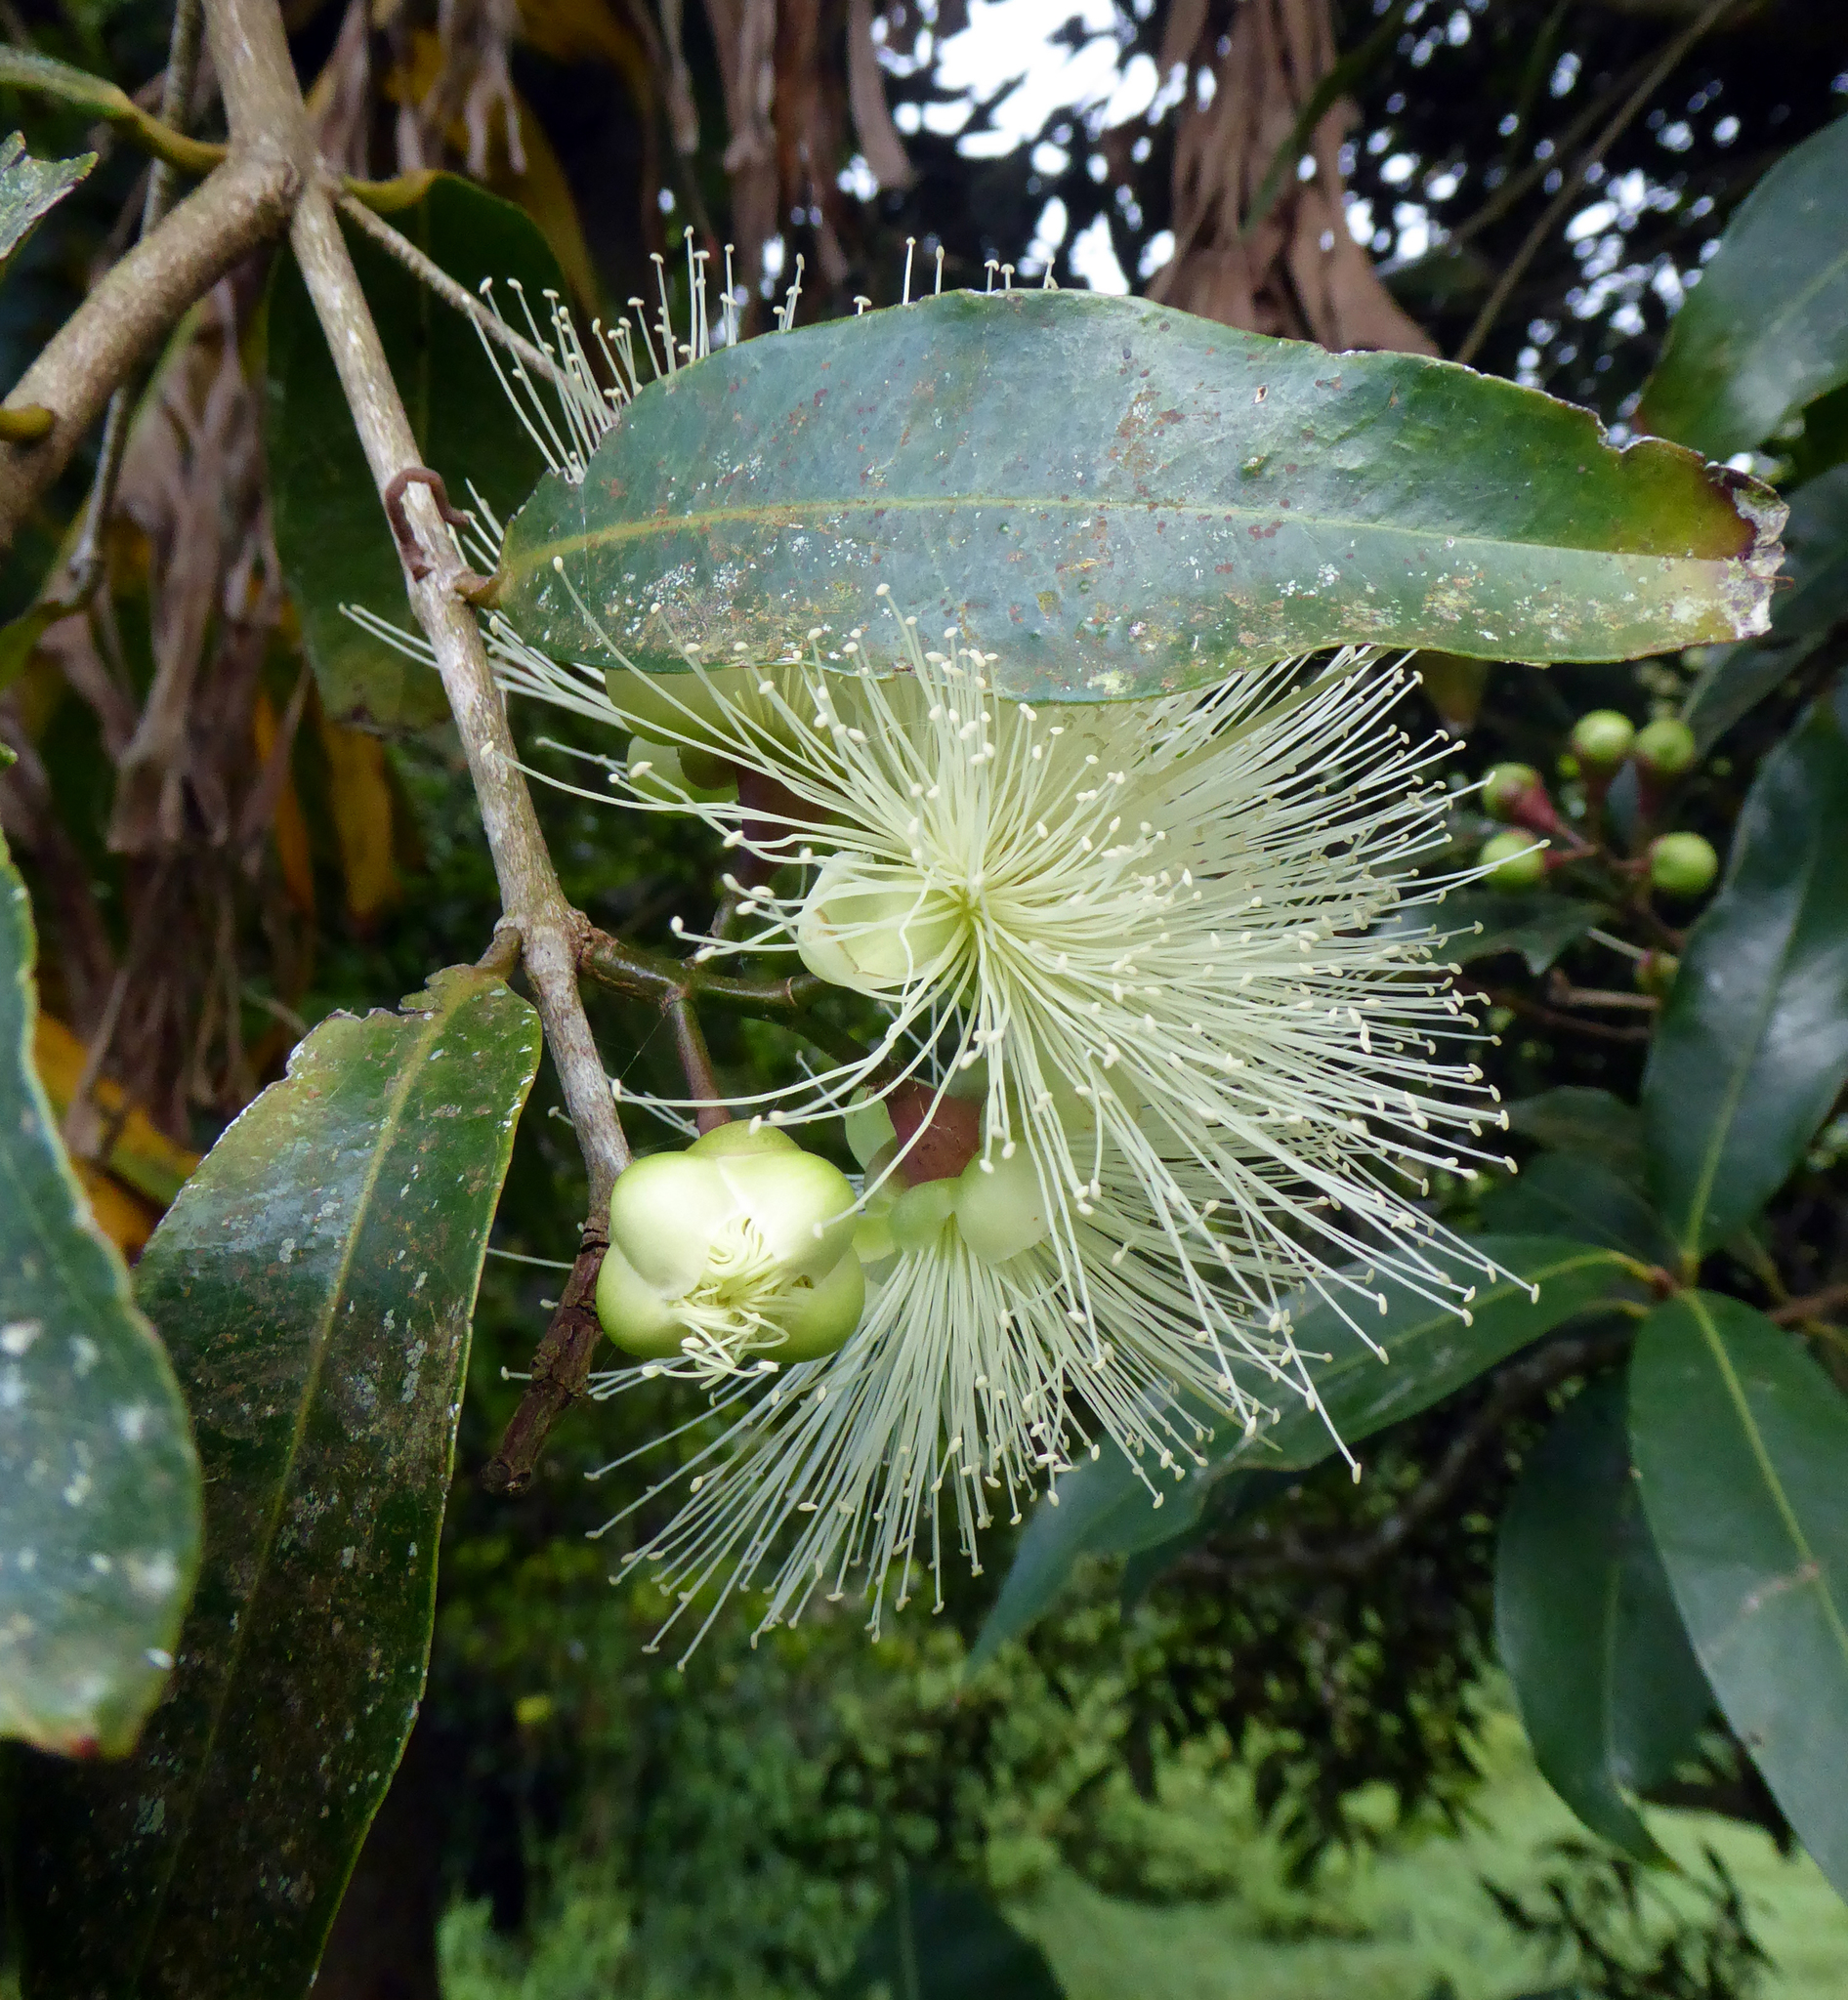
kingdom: Plantae
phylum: Tracheophyta
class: Magnoliopsida
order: Myrtales
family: Myrtaceae
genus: Syzygium
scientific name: Syzygium jambos
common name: Malabar plum
